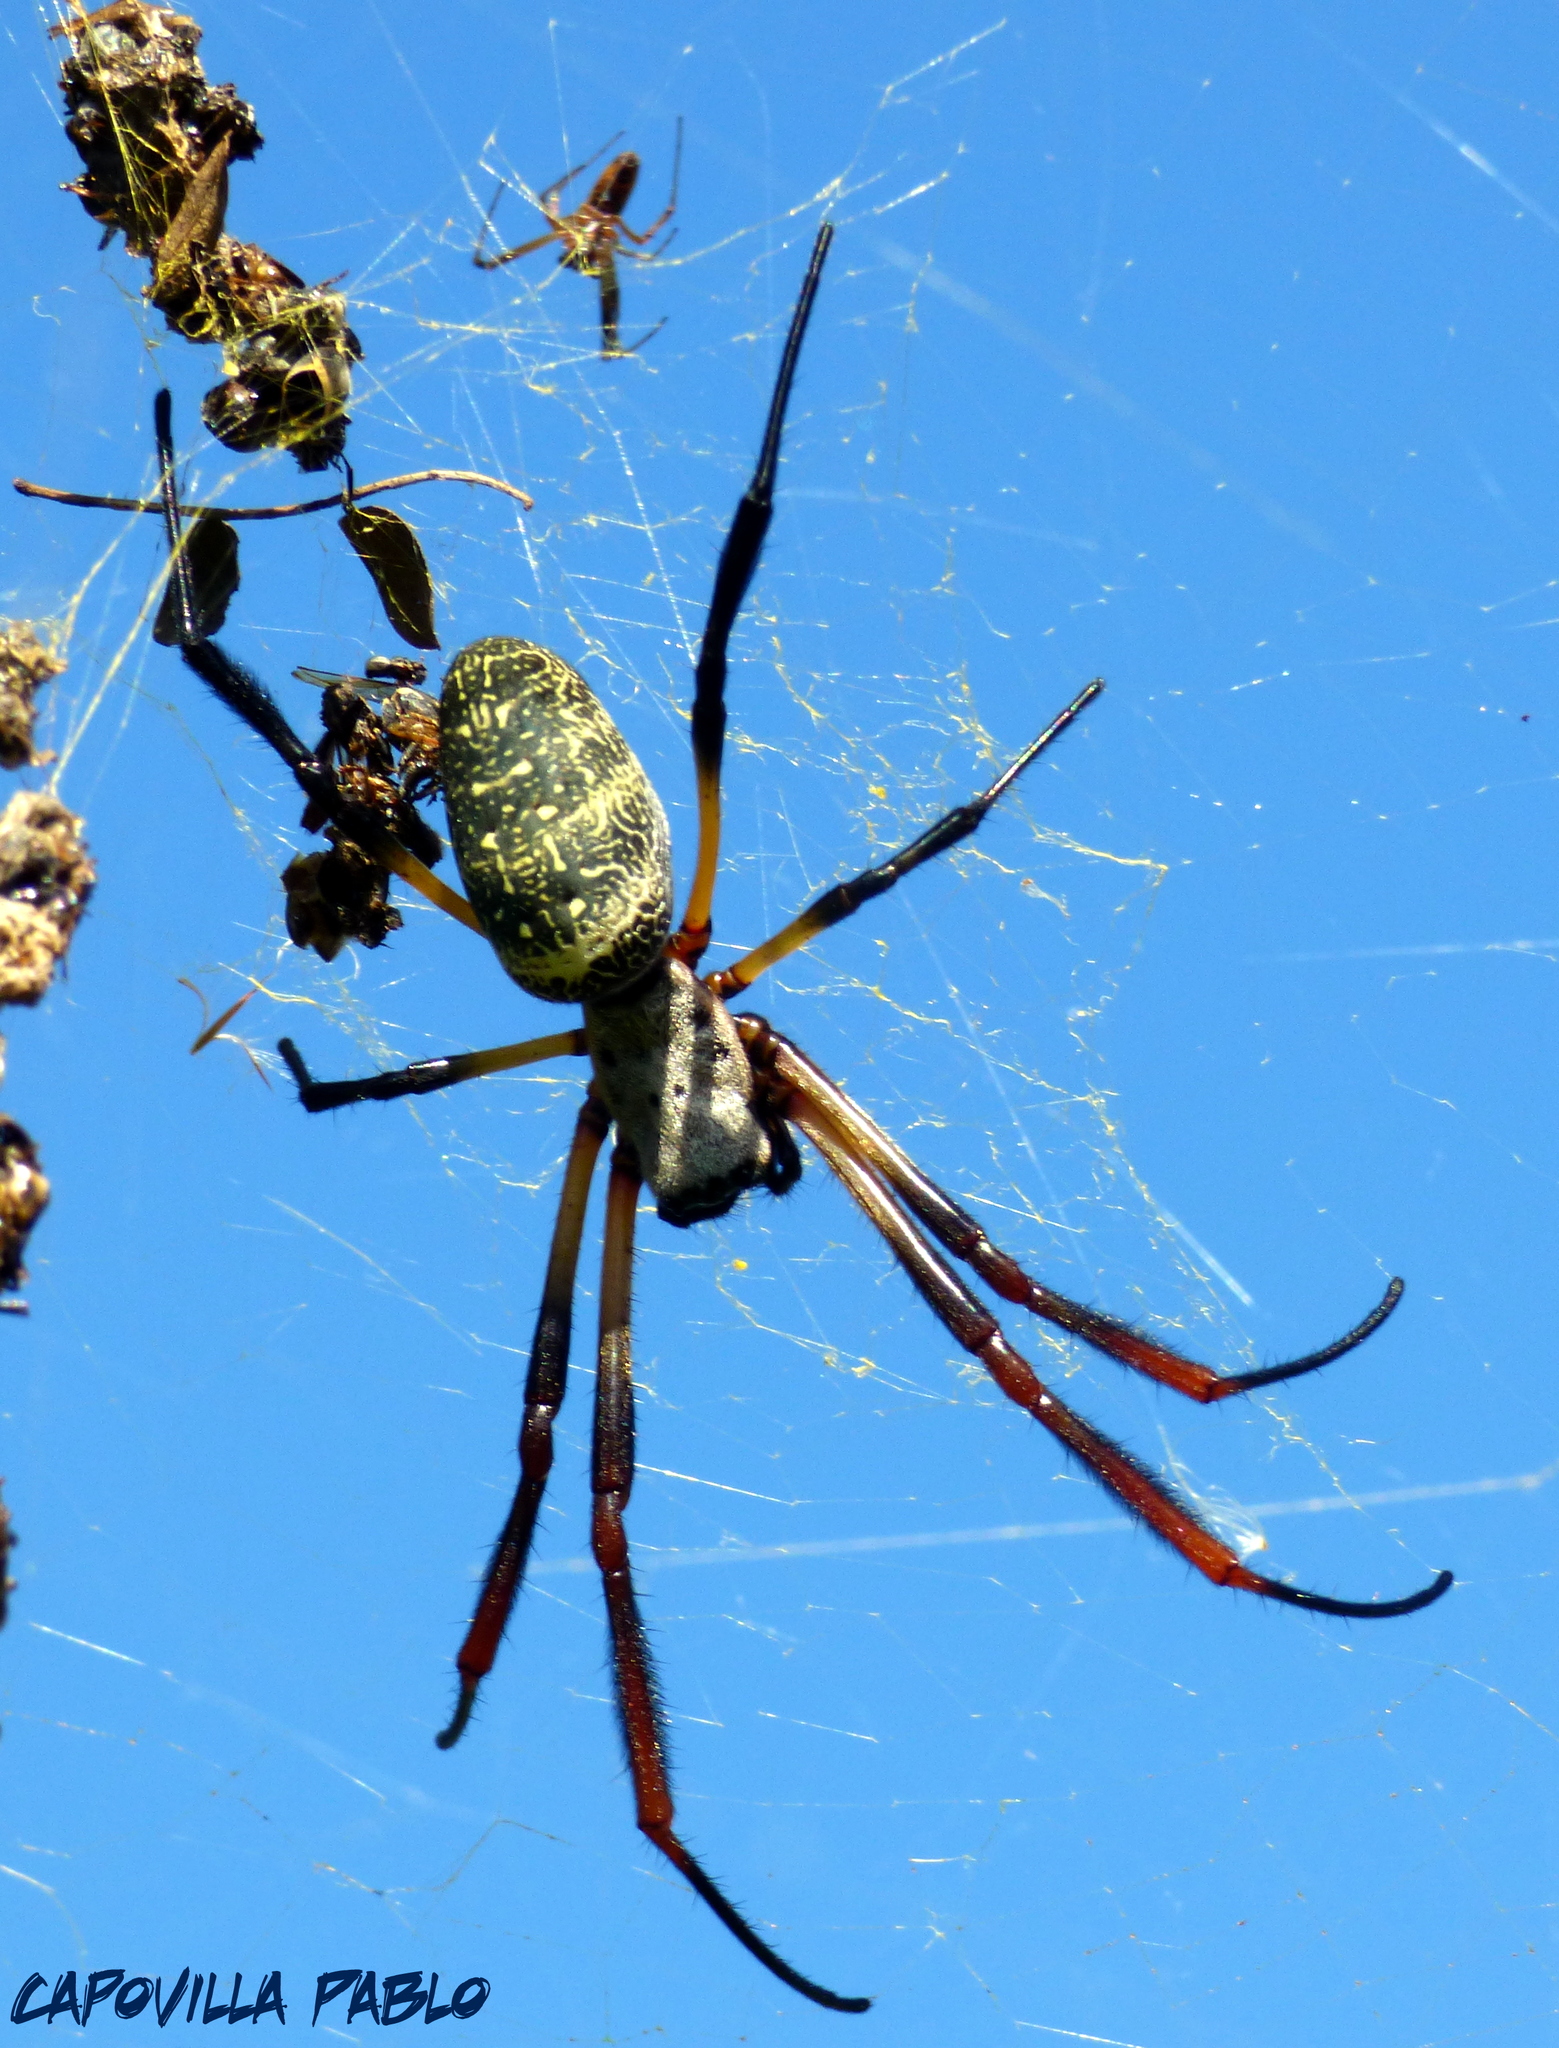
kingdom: Animalia
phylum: Arthropoda
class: Arachnida
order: Araneae
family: Araneidae
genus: Trichonephila
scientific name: Trichonephila sexpunctata
